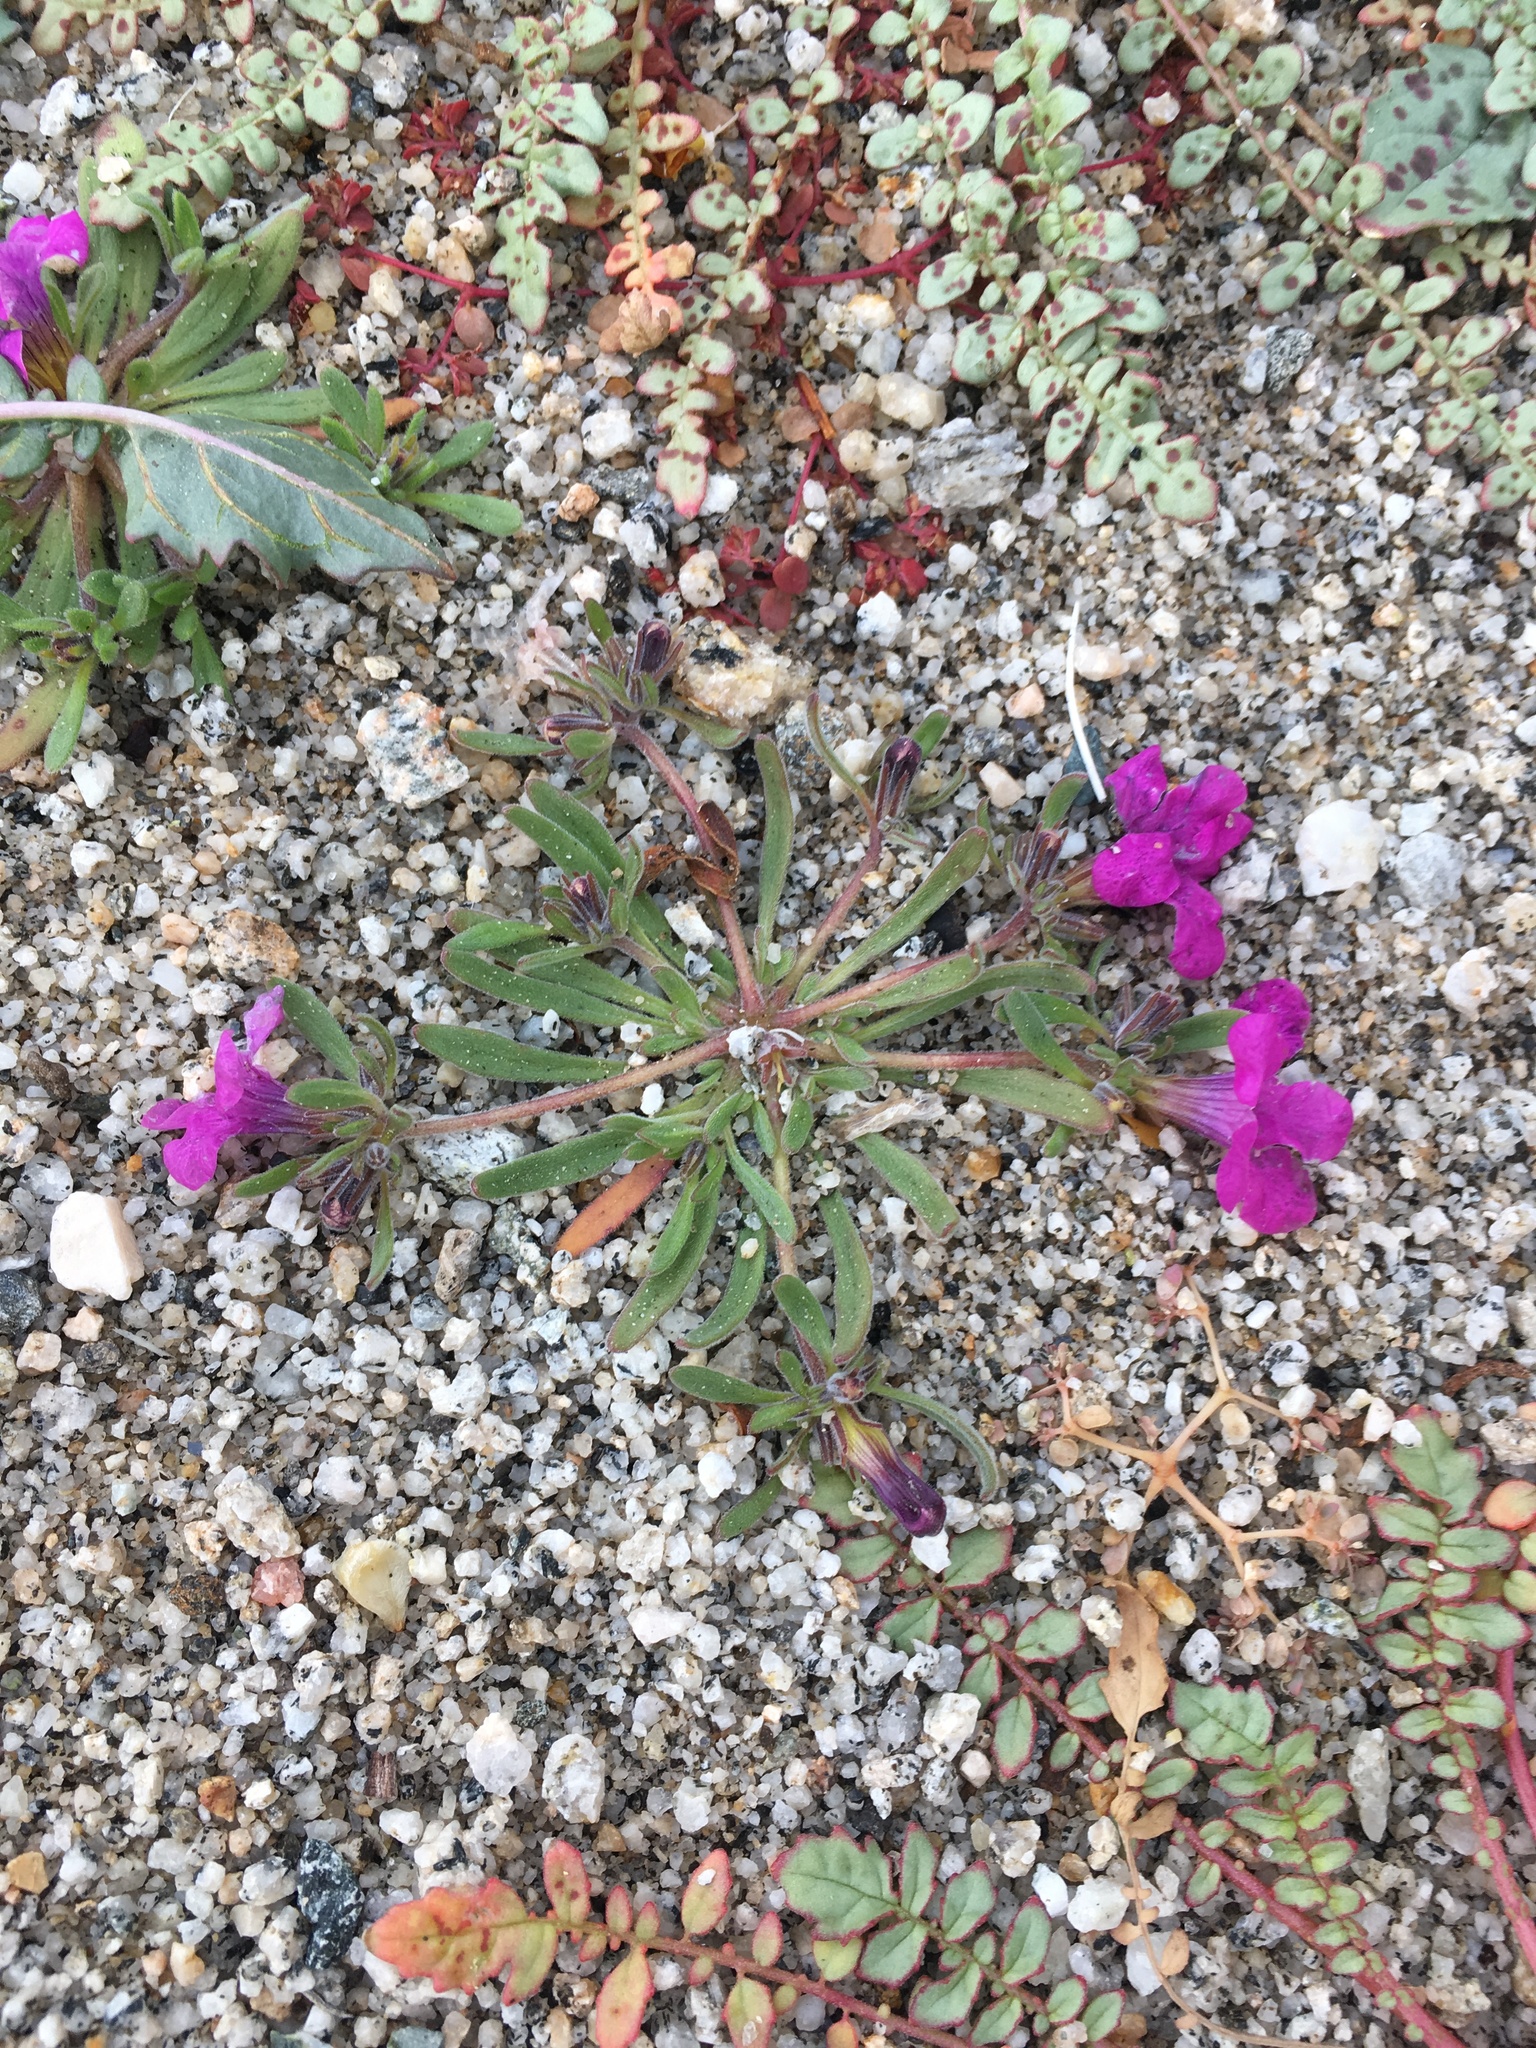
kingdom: Plantae
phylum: Tracheophyta
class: Magnoliopsida
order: Boraginales
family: Namaceae
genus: Nama
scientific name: Nama demissa
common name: Leafy nama
